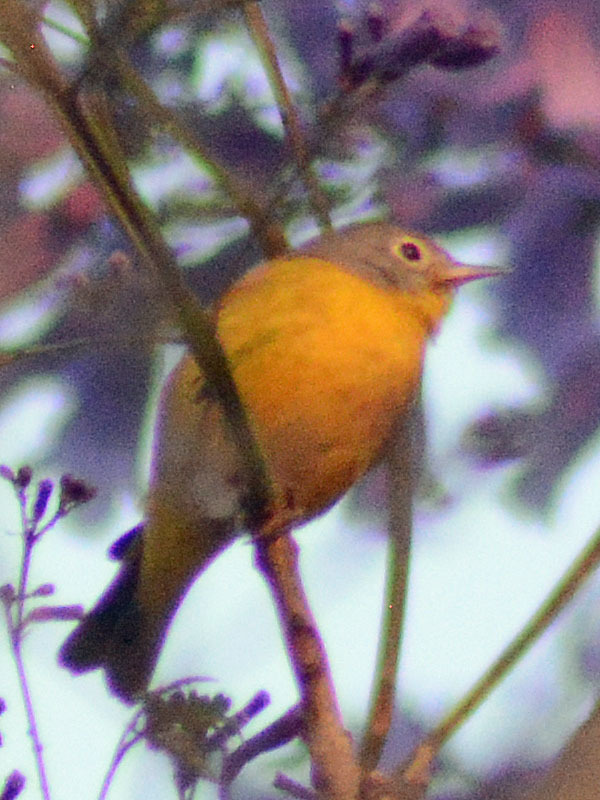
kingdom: Animalia
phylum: Chordata
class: Aves
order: Passeriformes
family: Parulidae
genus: Leiothlypis
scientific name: Leiothlypis ruficapilla
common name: Nashville warbler
